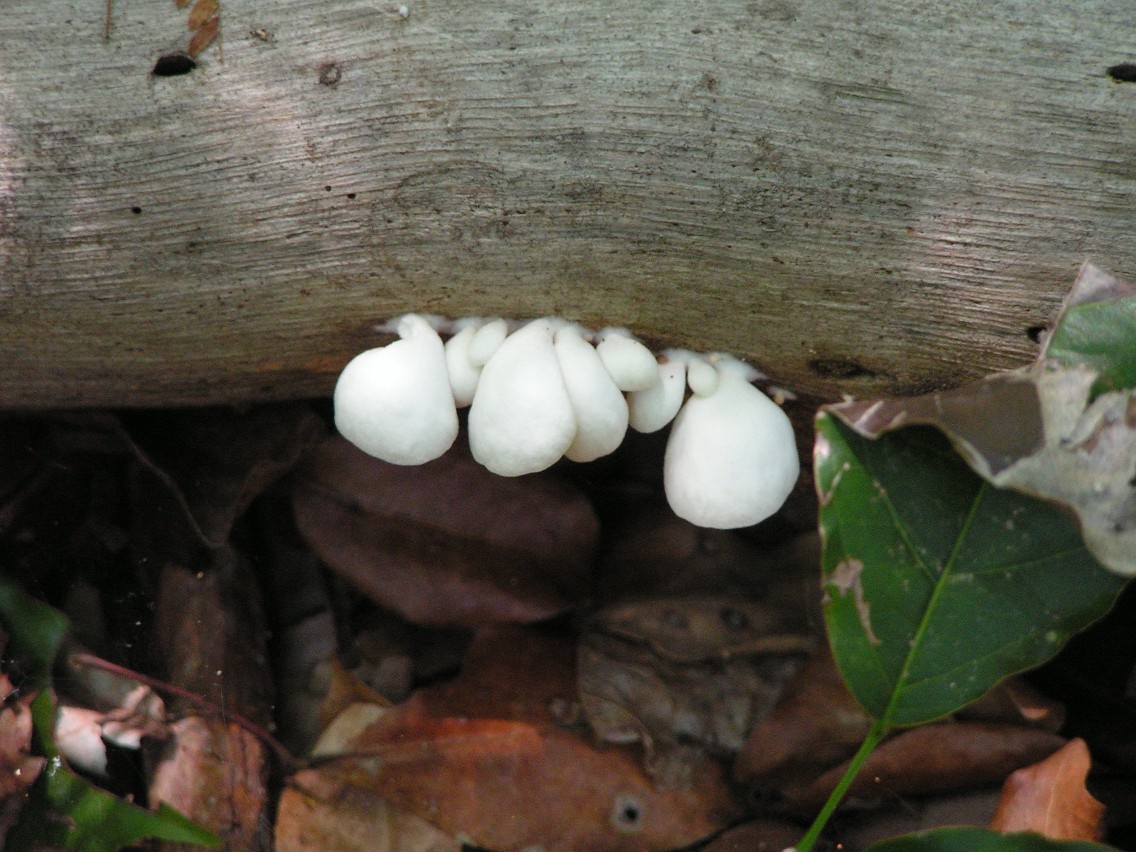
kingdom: Fungi
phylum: Basidiomycota
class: Agaricomycetes
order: Agaricales
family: Pleurotaceae
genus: Pleurotus
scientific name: Pleurotus
